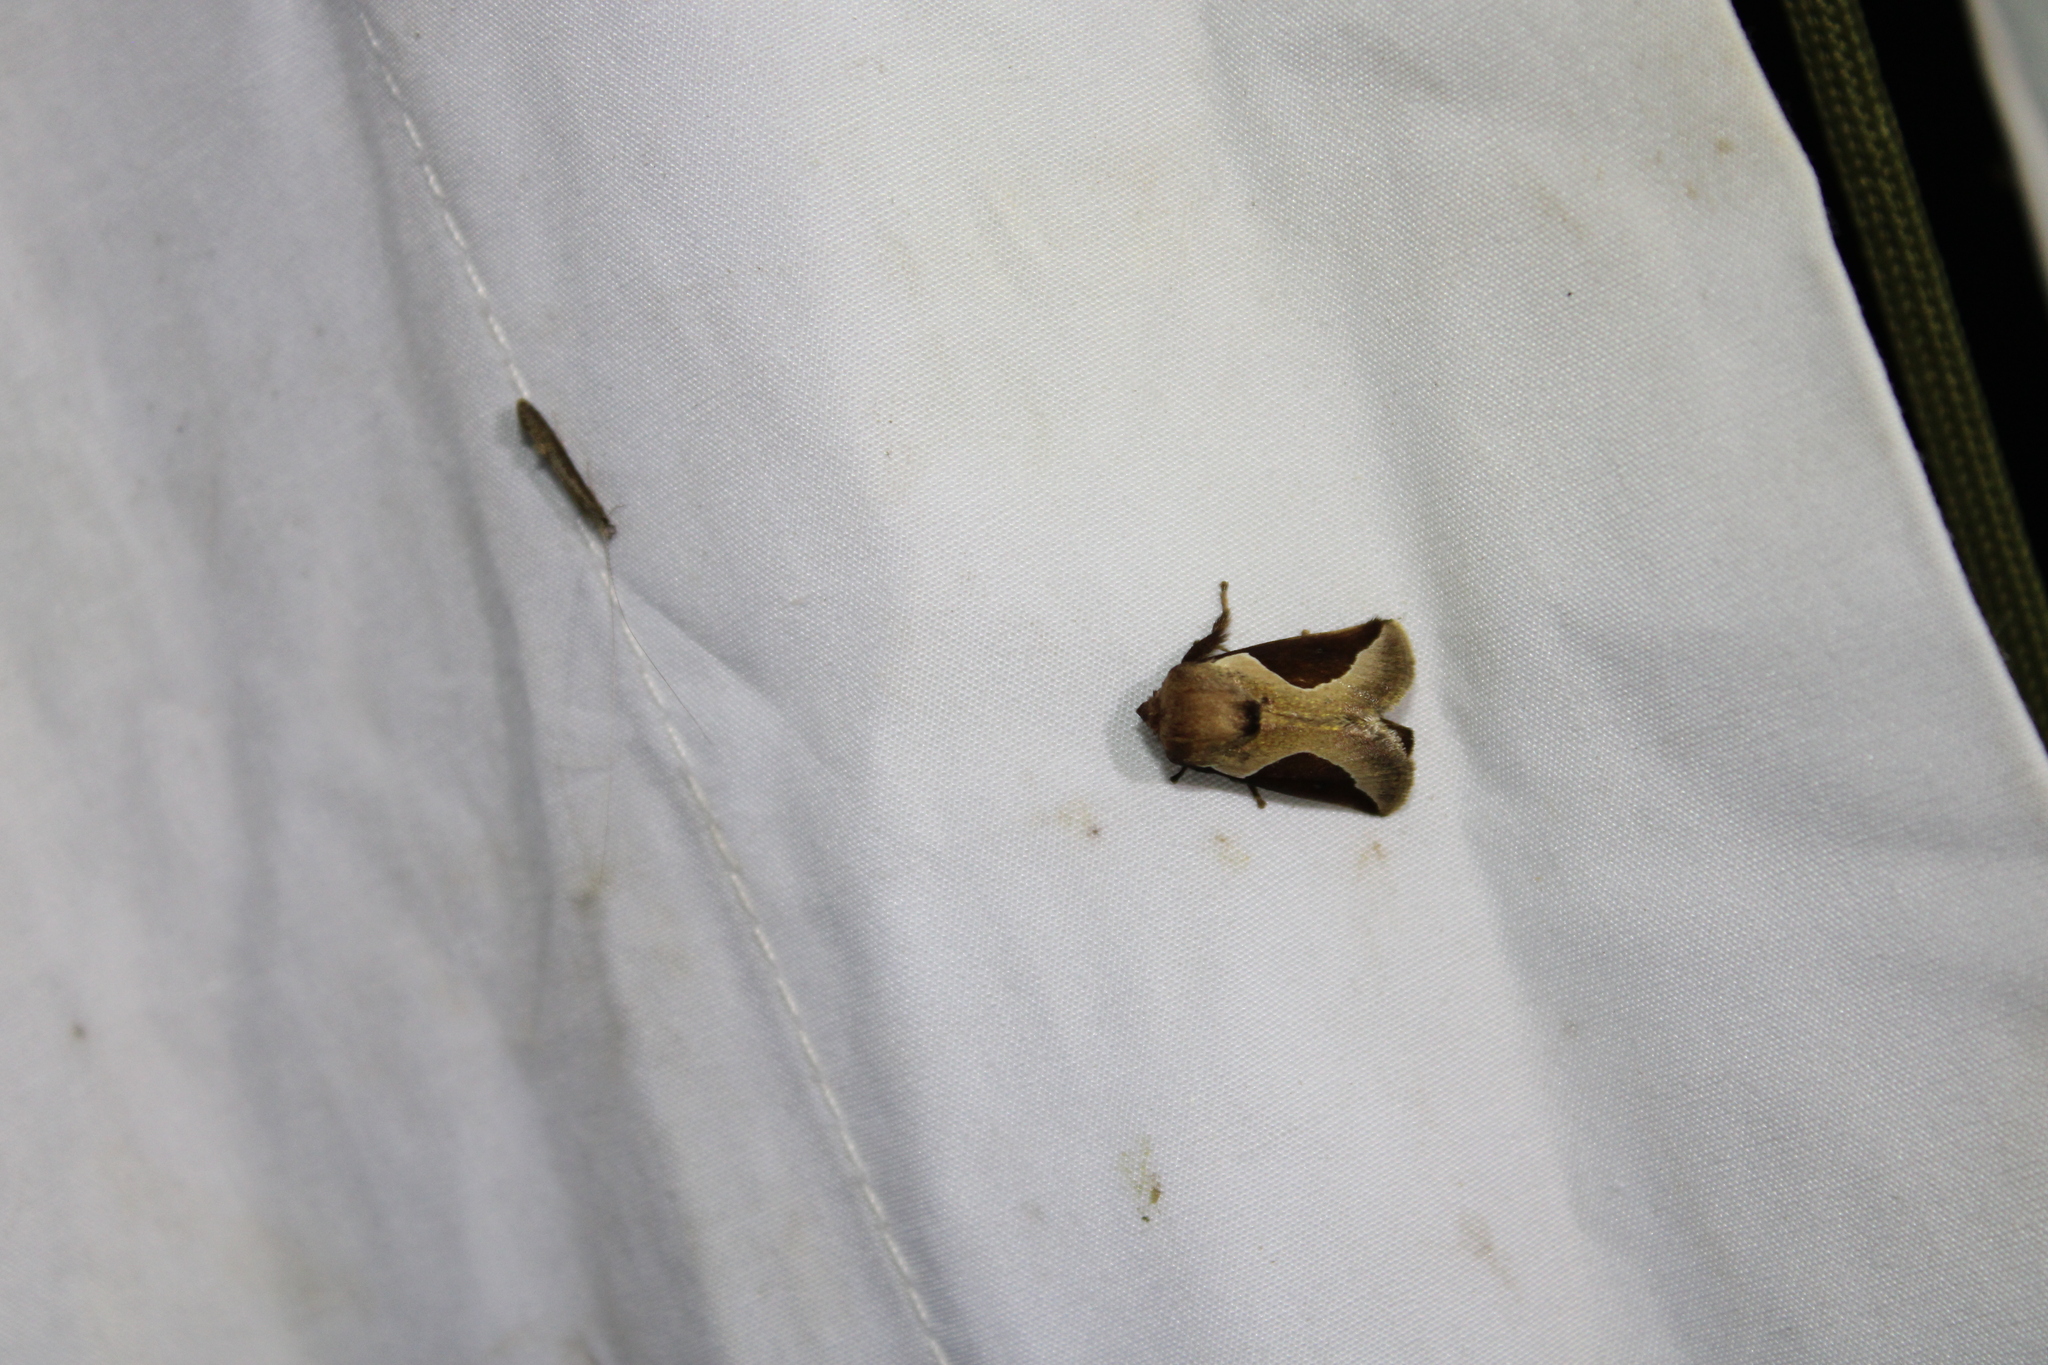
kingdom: Animalia
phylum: Arthropoda
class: Insecta
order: Lepidoptera
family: Limacodidae
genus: Prolimacodes
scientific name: Prolimacodes badia
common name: Skiff moth
